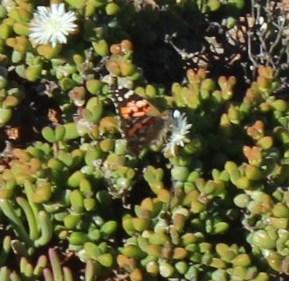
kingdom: Animalia
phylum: Arthropoda
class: Insecta
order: Lepidoptera
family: Nymphalidae
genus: Vanessa
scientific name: Vanessa cardui
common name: Painted lady
